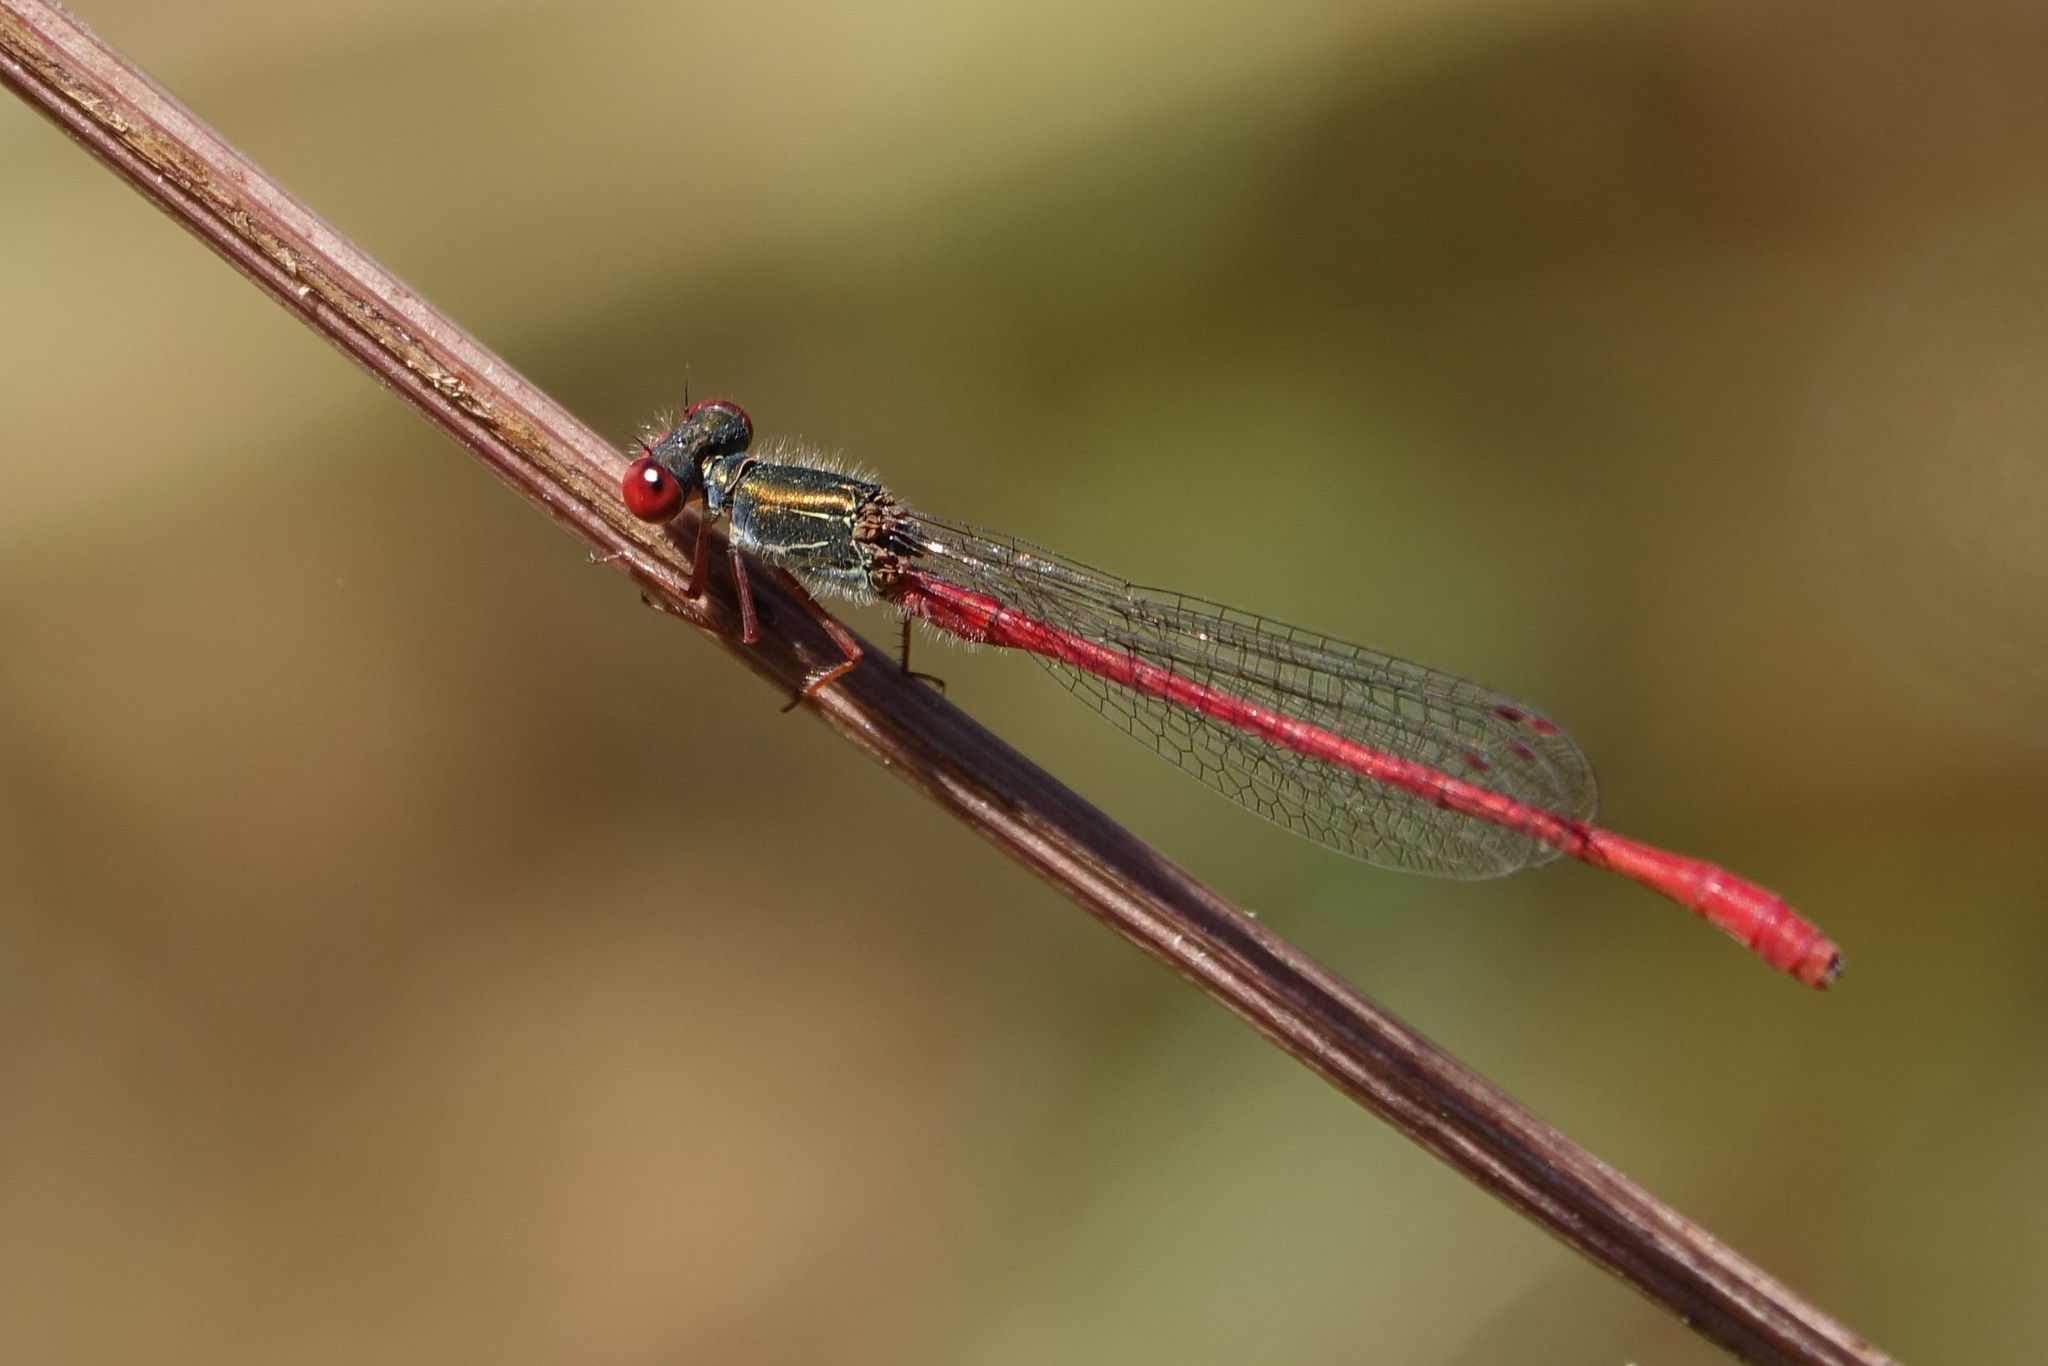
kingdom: Animalia
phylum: Arthropoda
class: Insecta
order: Odonata
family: Coenagrionidae
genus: Ceriagrion
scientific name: Ceriagrion tenellum
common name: Small red damselfly
